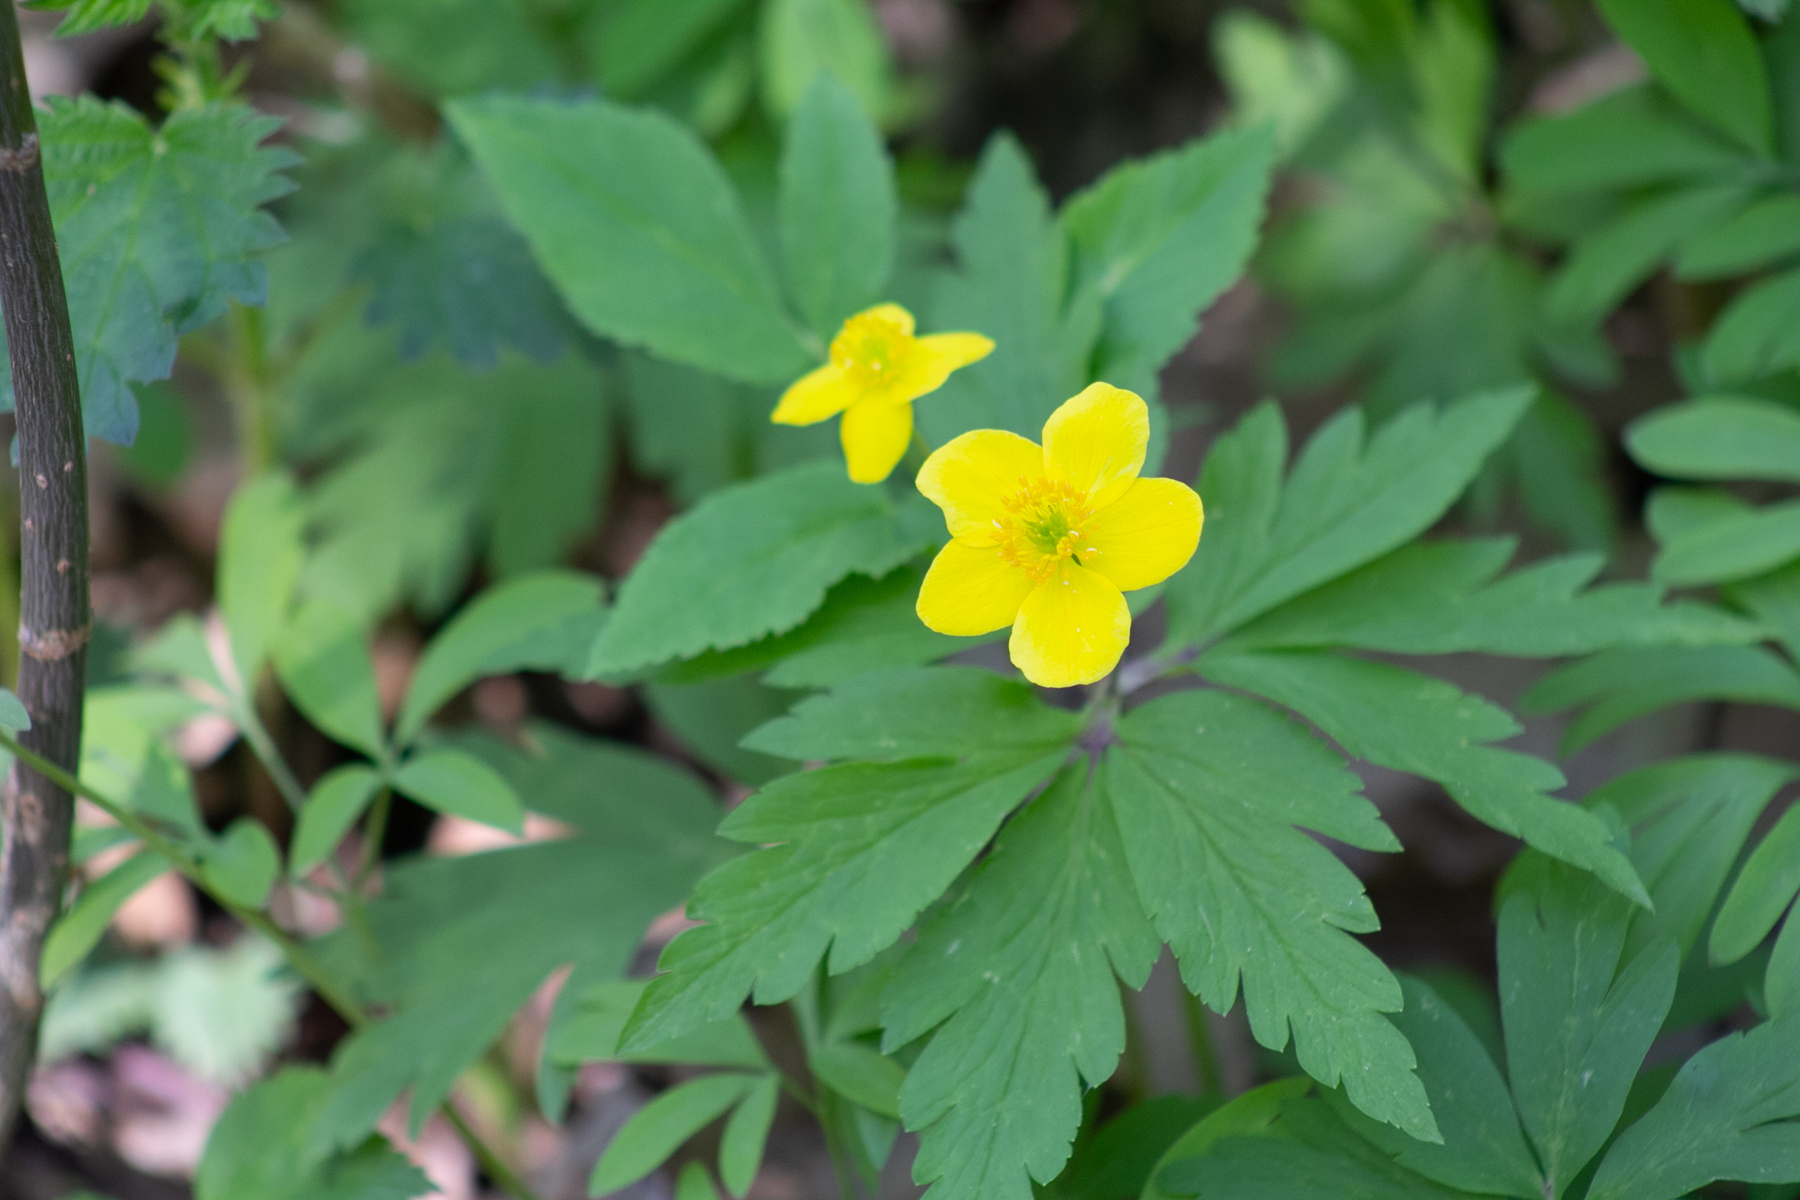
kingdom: Plantae
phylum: Tracheophyta
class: Magnoliopsida
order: Ranunculales
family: Ranunculaceae
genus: Anemone
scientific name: Anemone ranunculoides
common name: Yellow anemone
